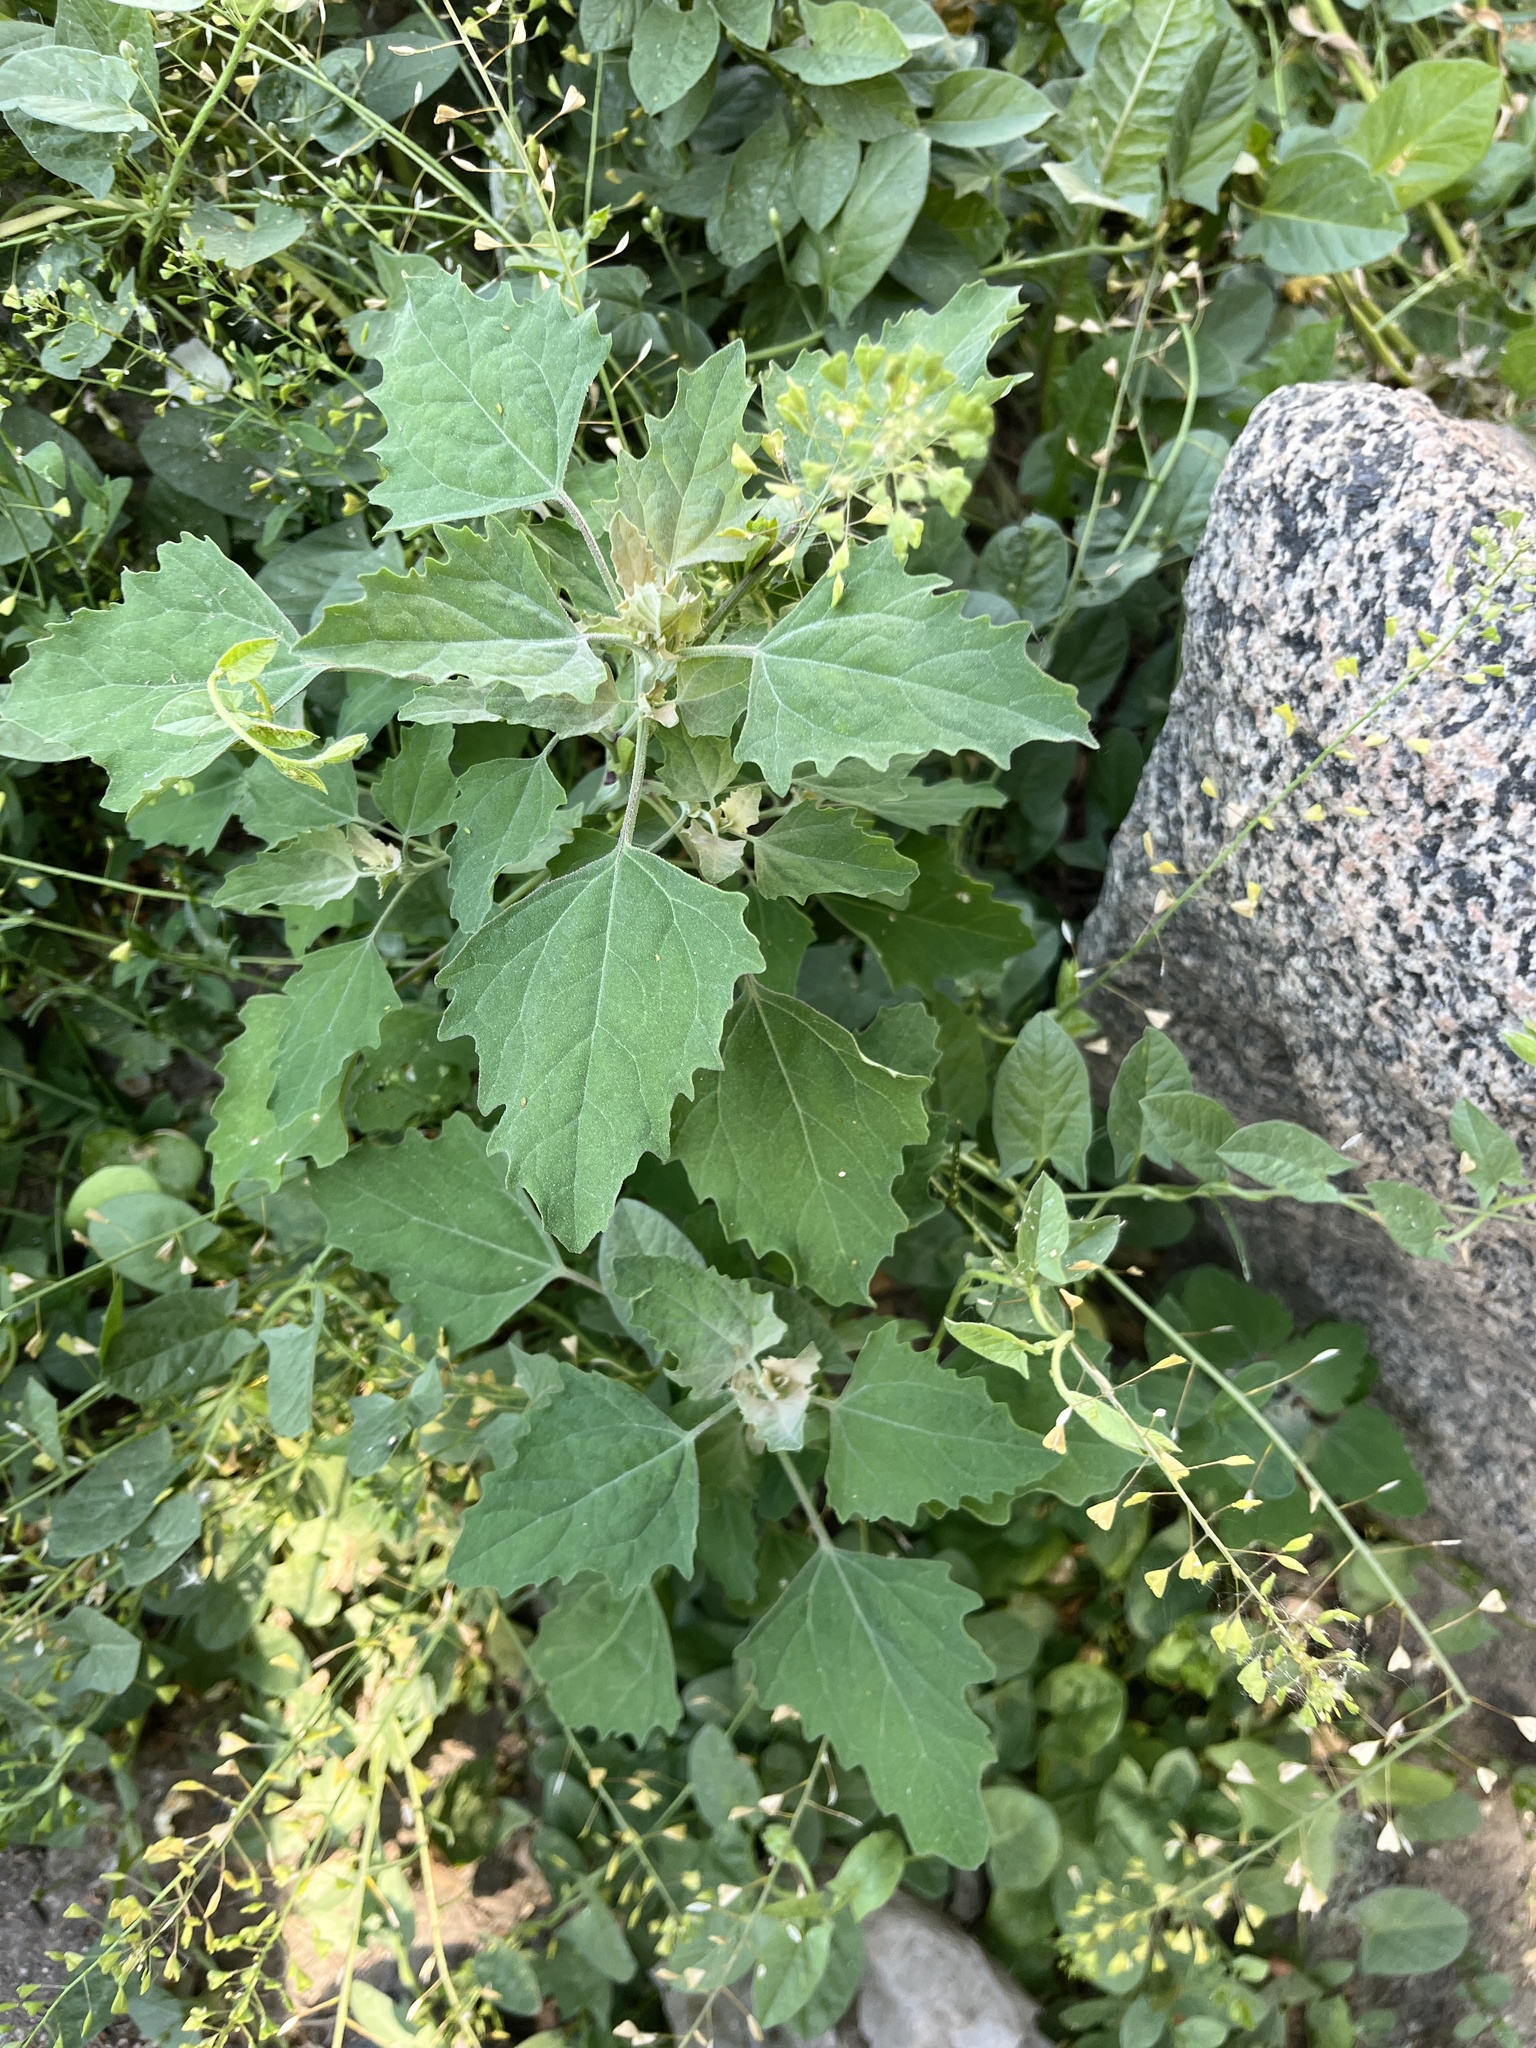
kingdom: Plantae
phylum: Tracheophyta
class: Magnoliopsida
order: Caryophyllales
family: Amaranthaceae
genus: Chenopodium
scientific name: Chenopodium album
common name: Fat-hen
